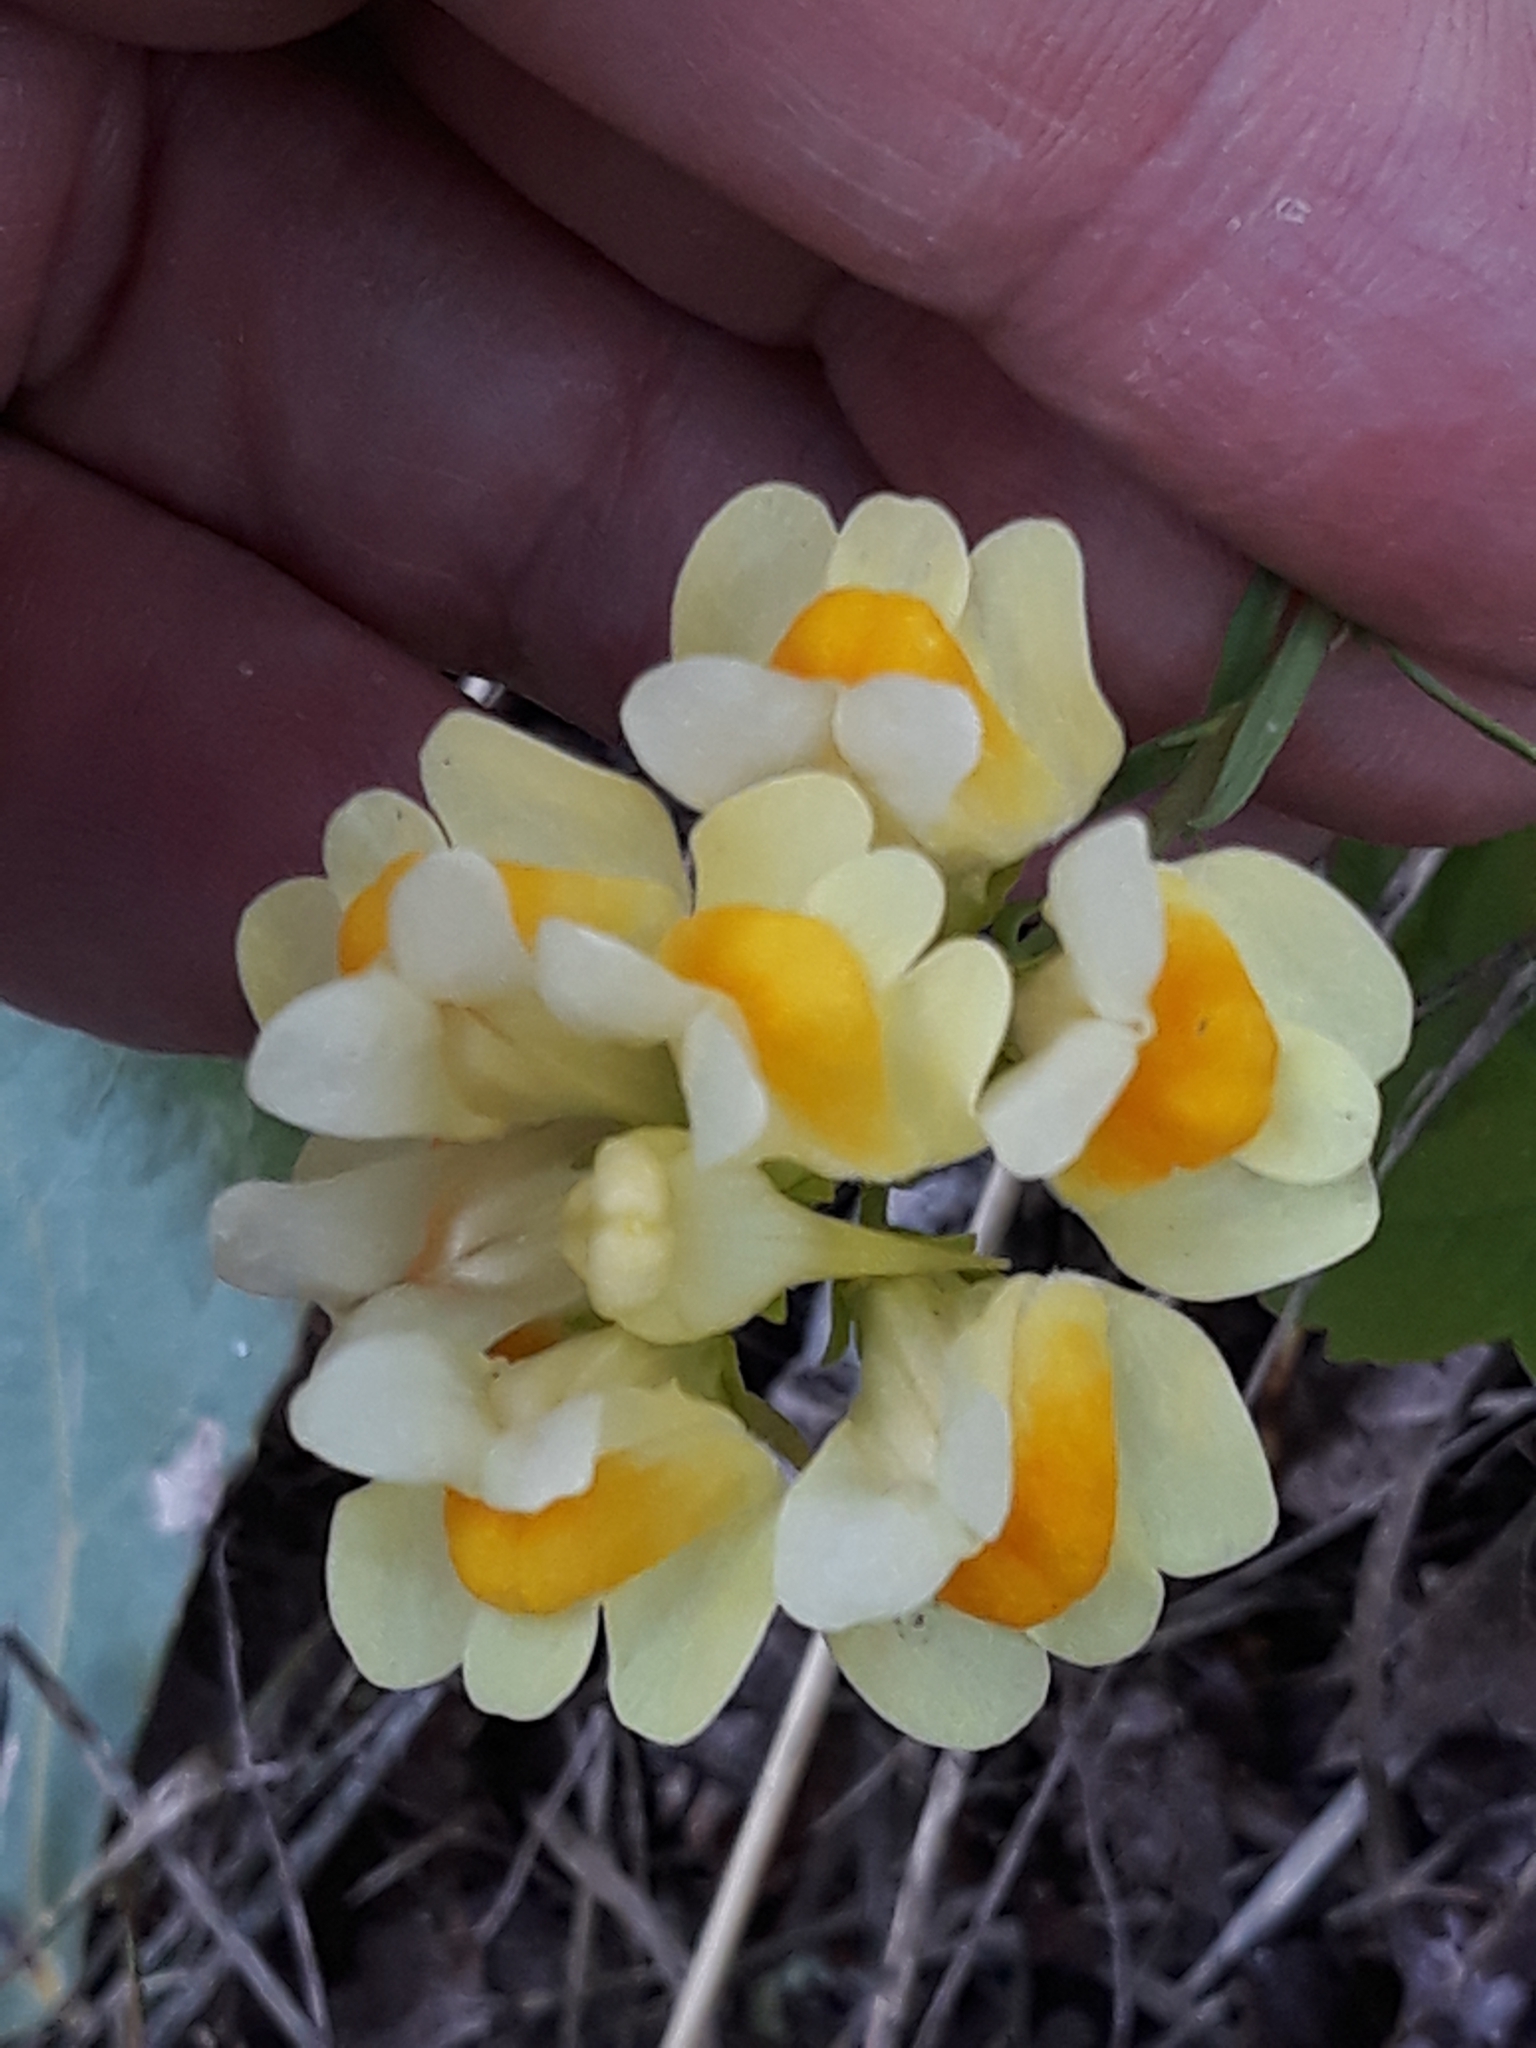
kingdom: Plantae
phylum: Tracheophyta
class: Magnoliopsida
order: Lamiales
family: Plantaginaceae
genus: Linaria
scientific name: Linaria vulgaris
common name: Butter and eggs
